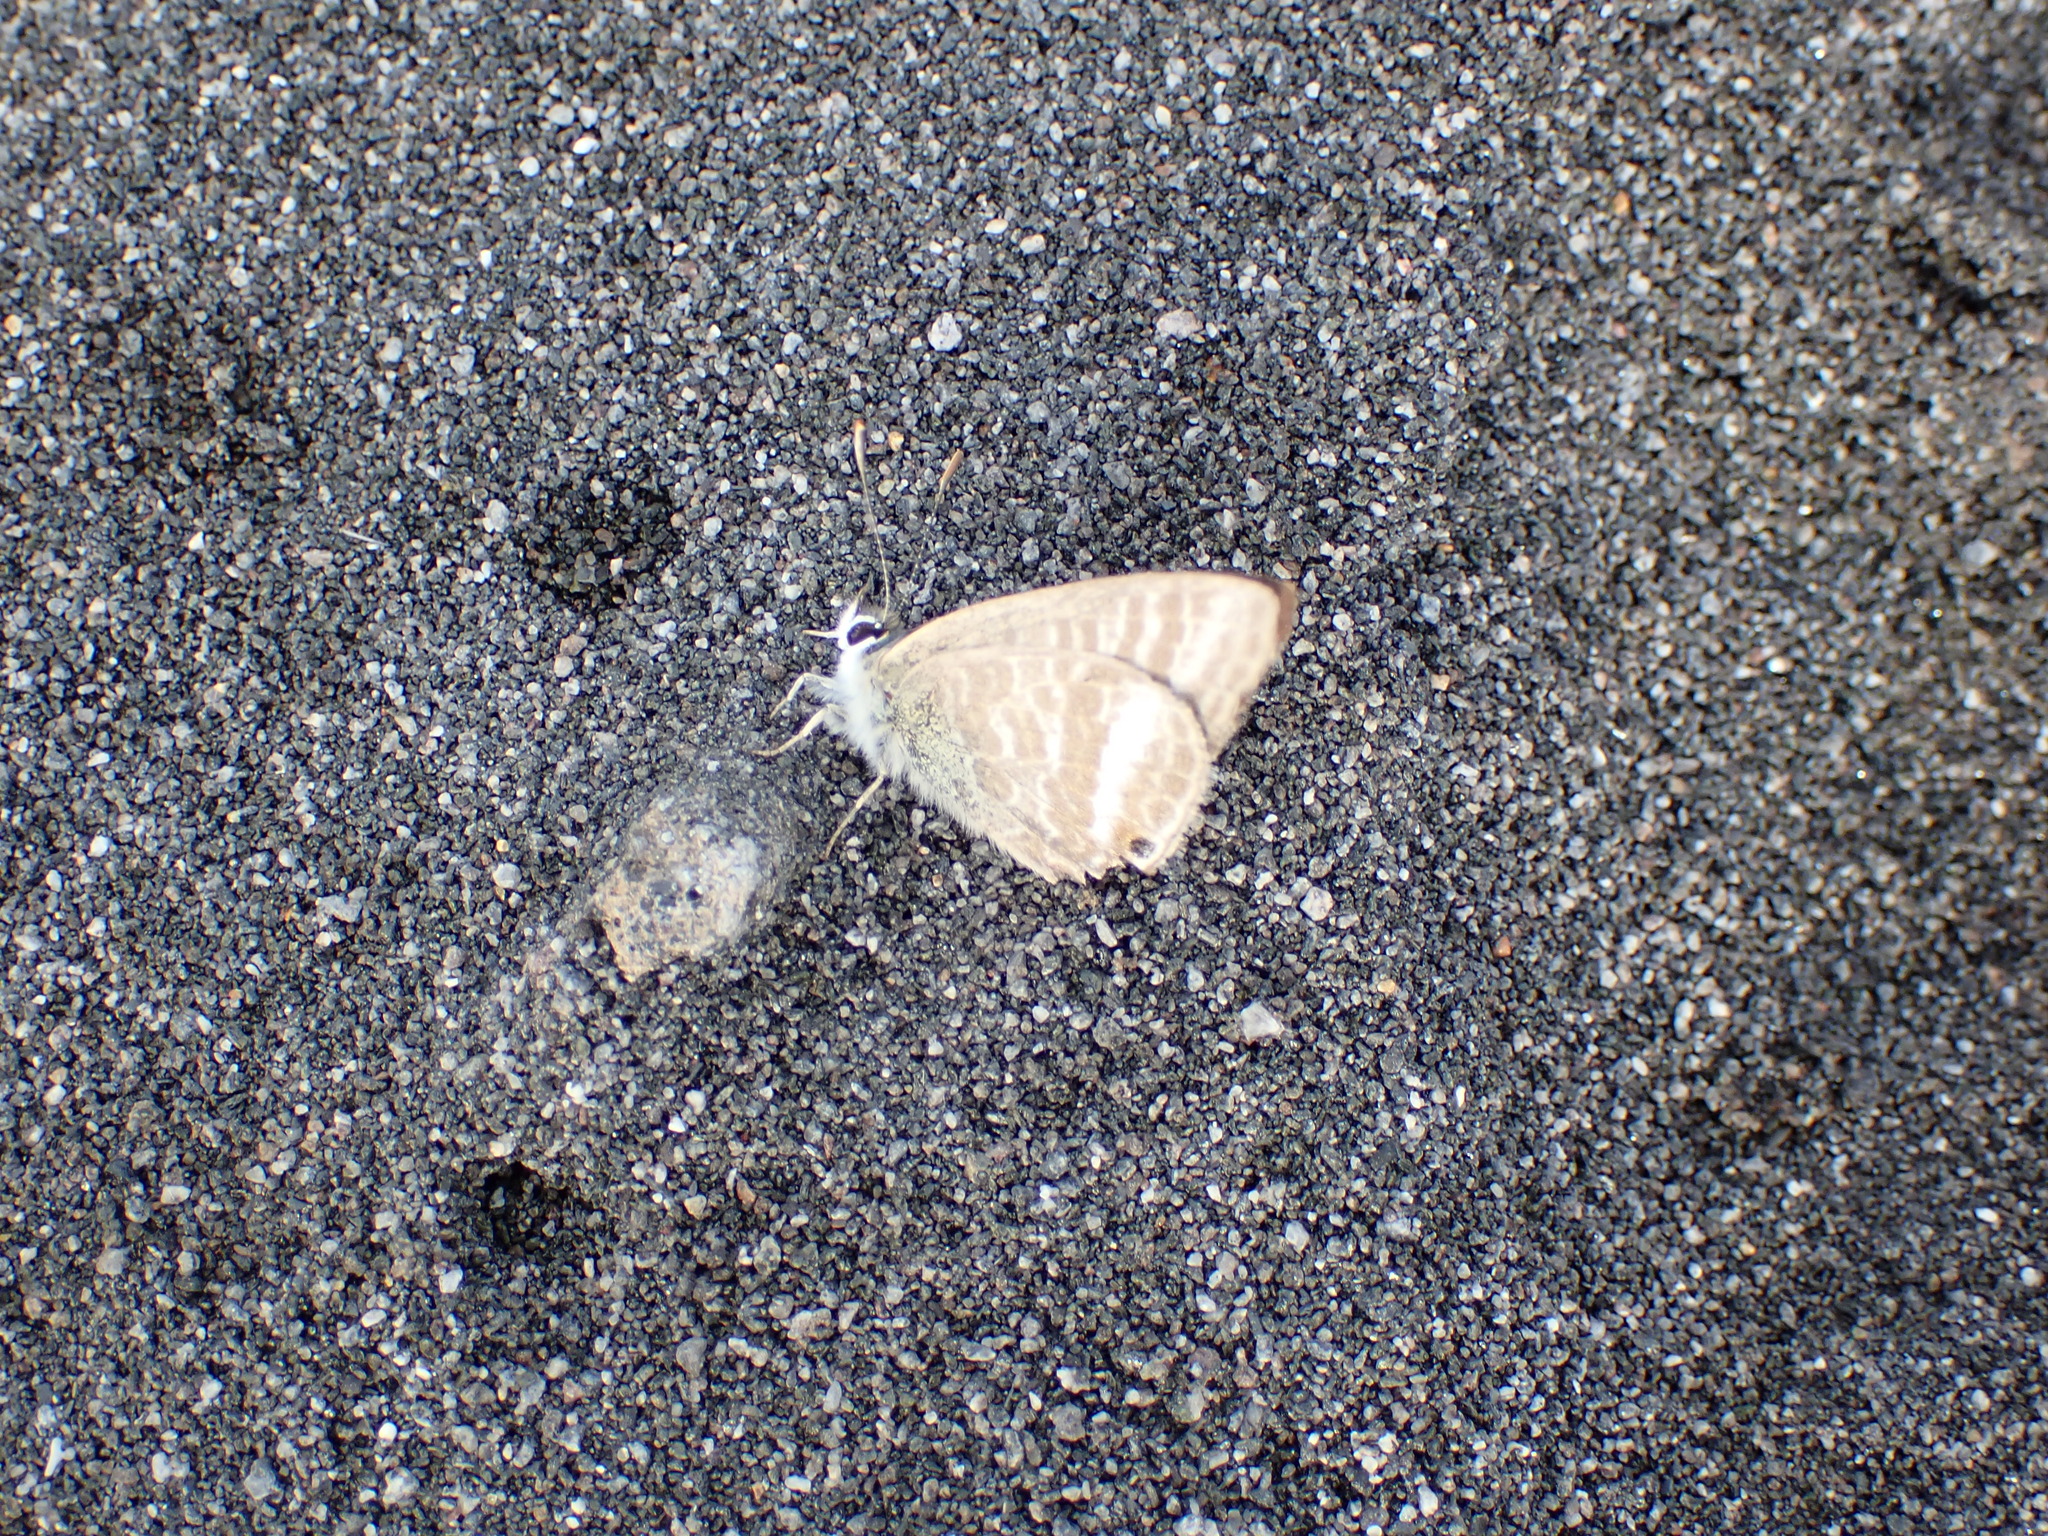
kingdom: Animalia
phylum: Arthropoda
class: Insecta
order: Lepidoptera
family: Lycaenidae
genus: Lampides
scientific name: Lampides boeticus
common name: Long-tailed blue
